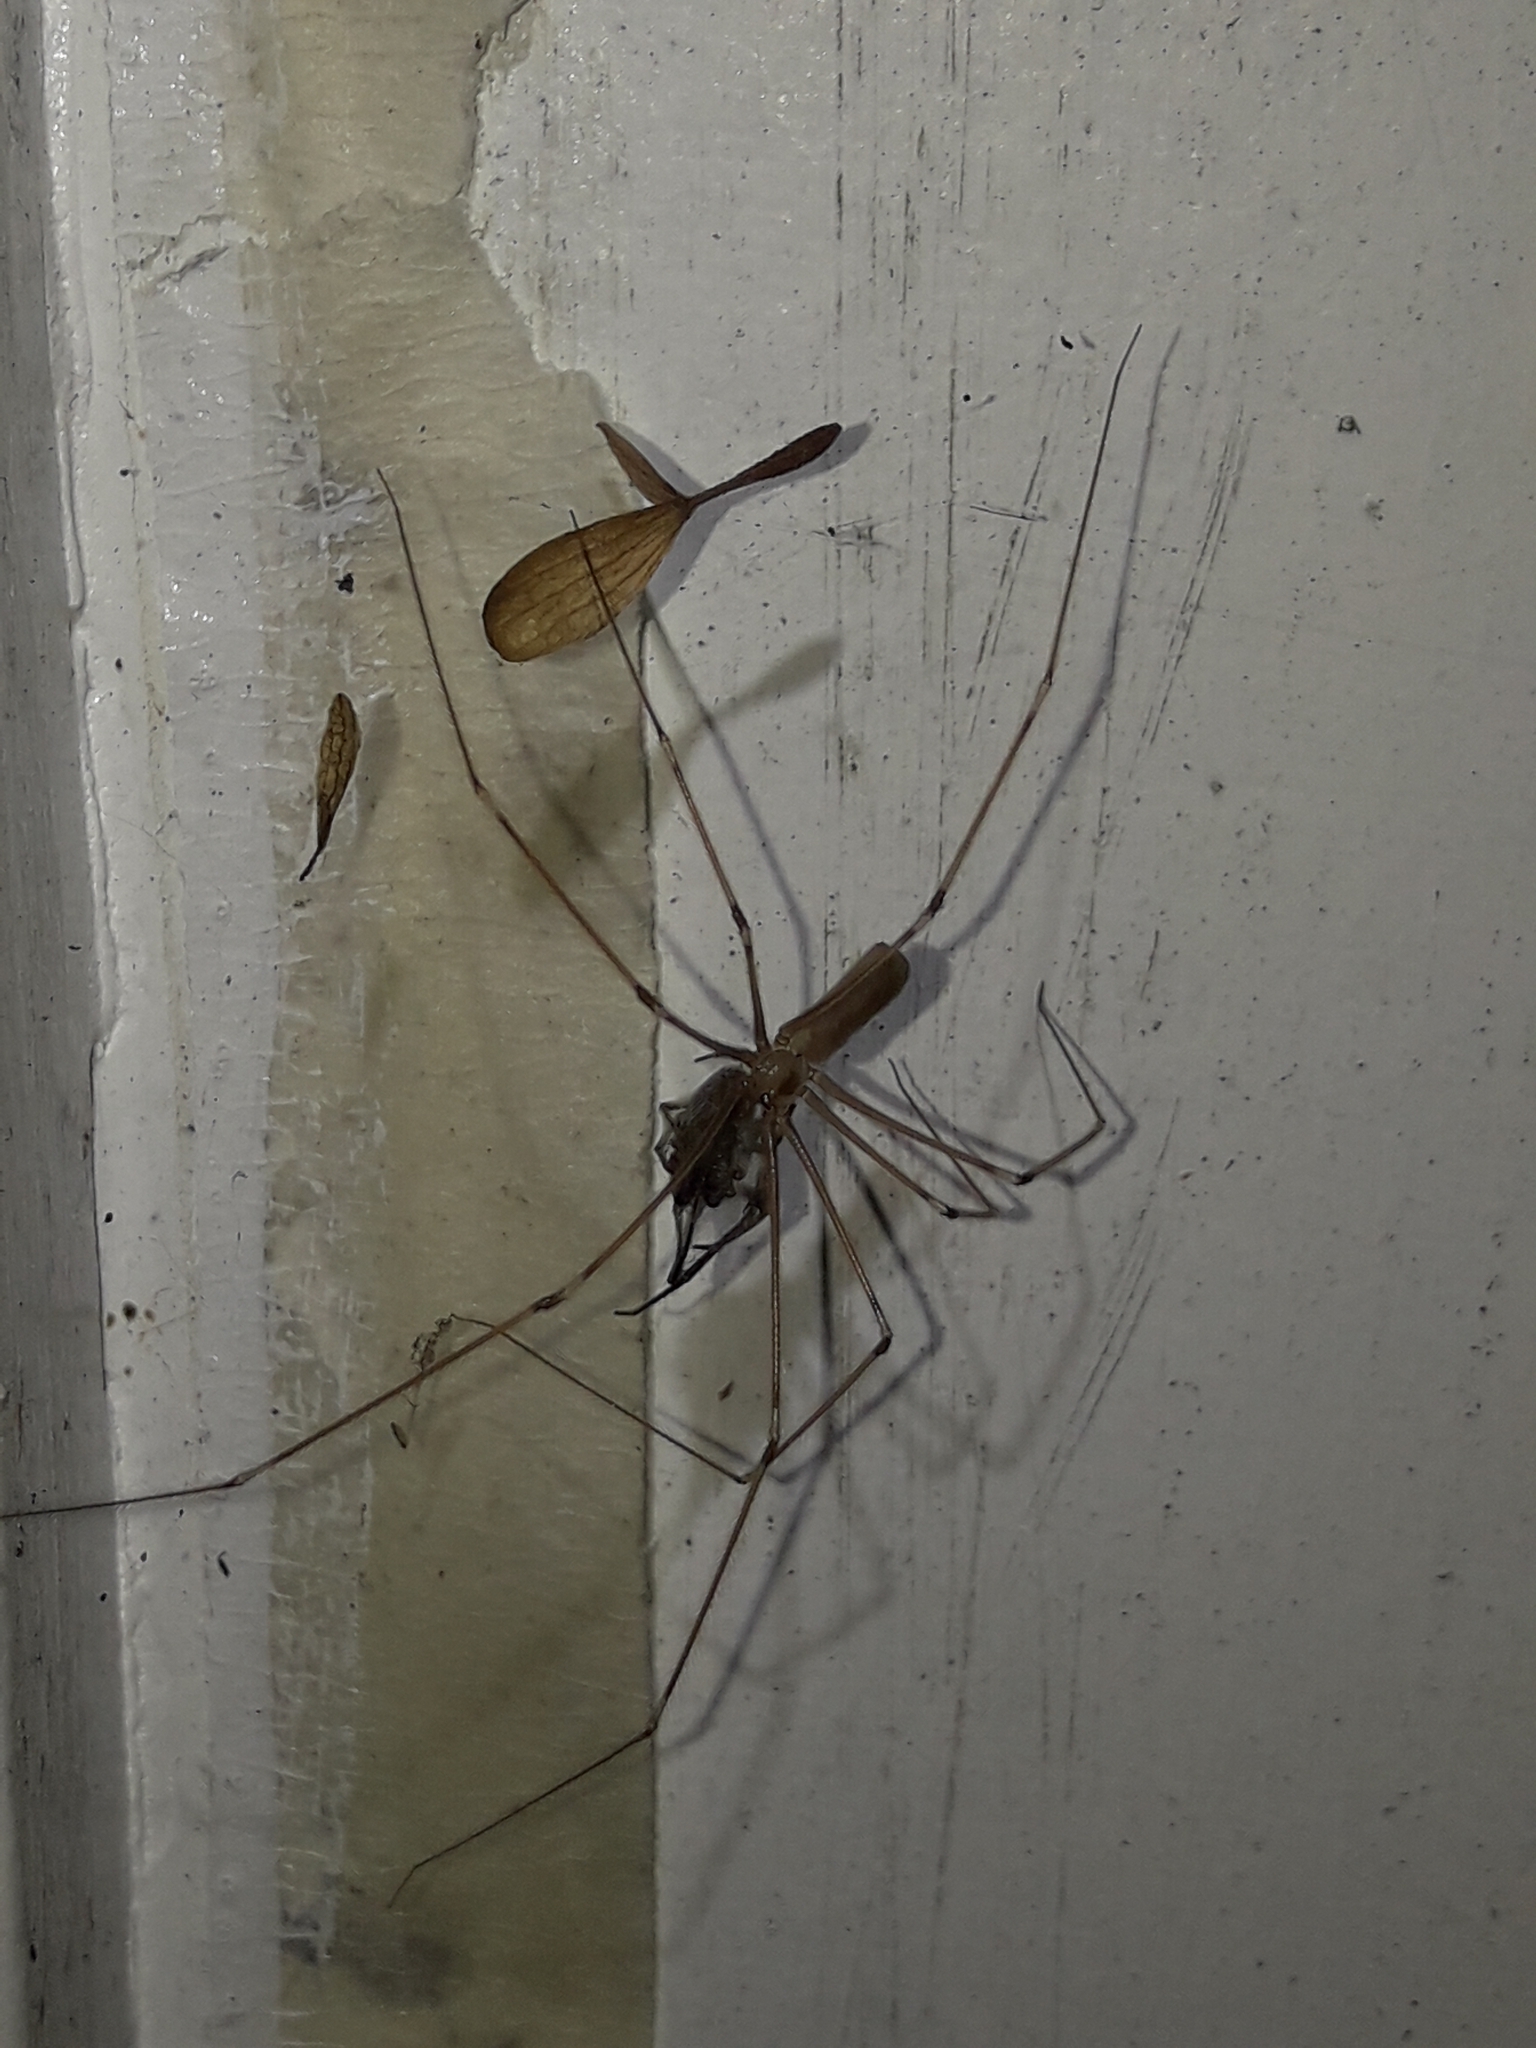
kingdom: Animalia
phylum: Arthropoda
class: Arachnida
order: Araneae
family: Pholcidae
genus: Pholcus
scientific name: Pholcus phalangioides
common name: Longbodied cellar spider
